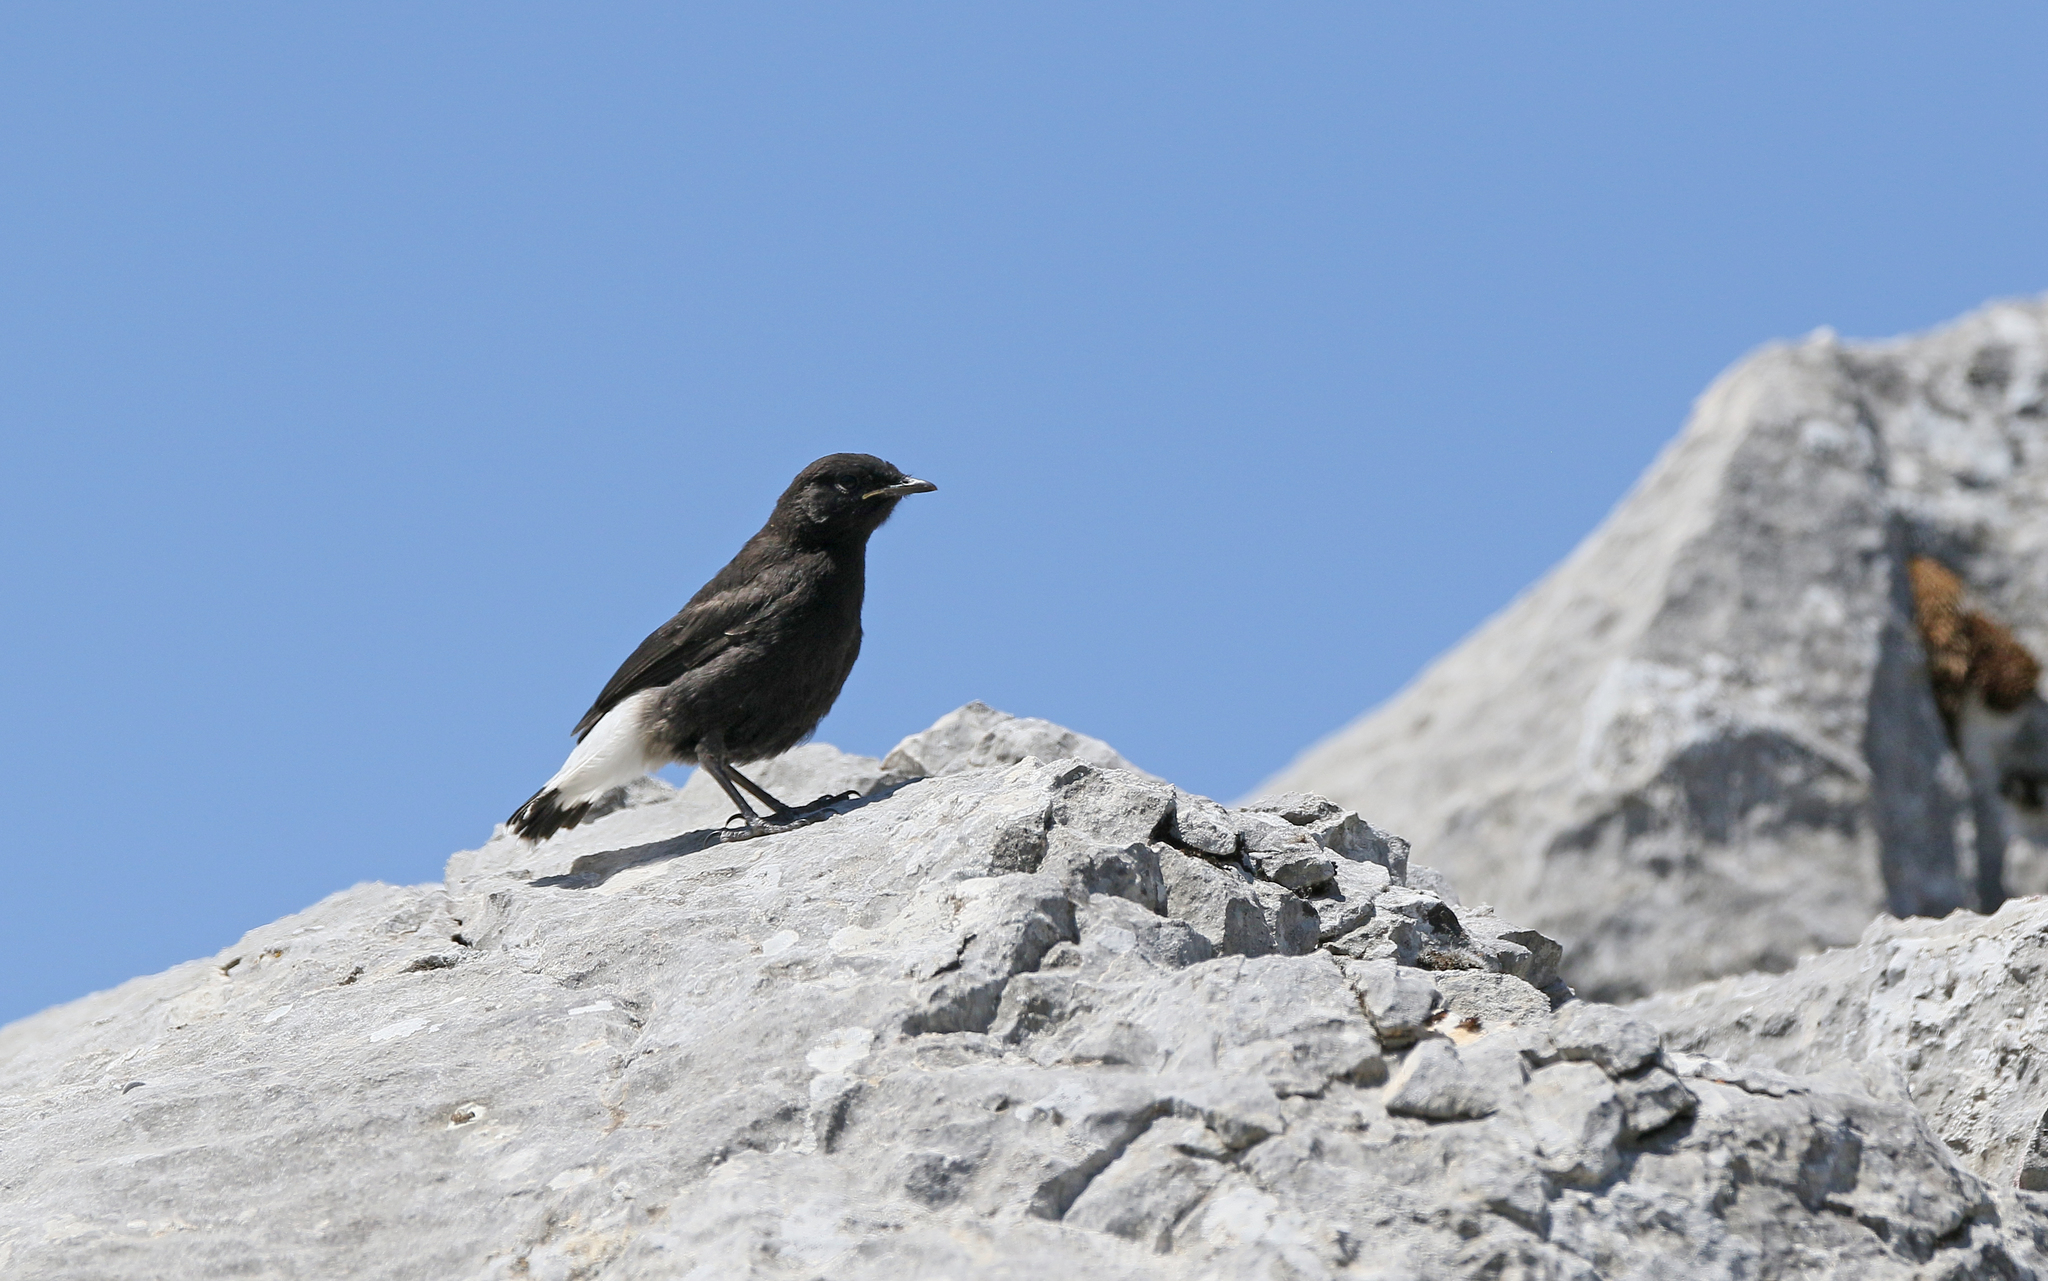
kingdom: Animalia
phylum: Chordata
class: Aves
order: Passeriformes
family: Muscicapidae
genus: Oenanthe
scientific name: Oenanthe leucura
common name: Black wheatear
